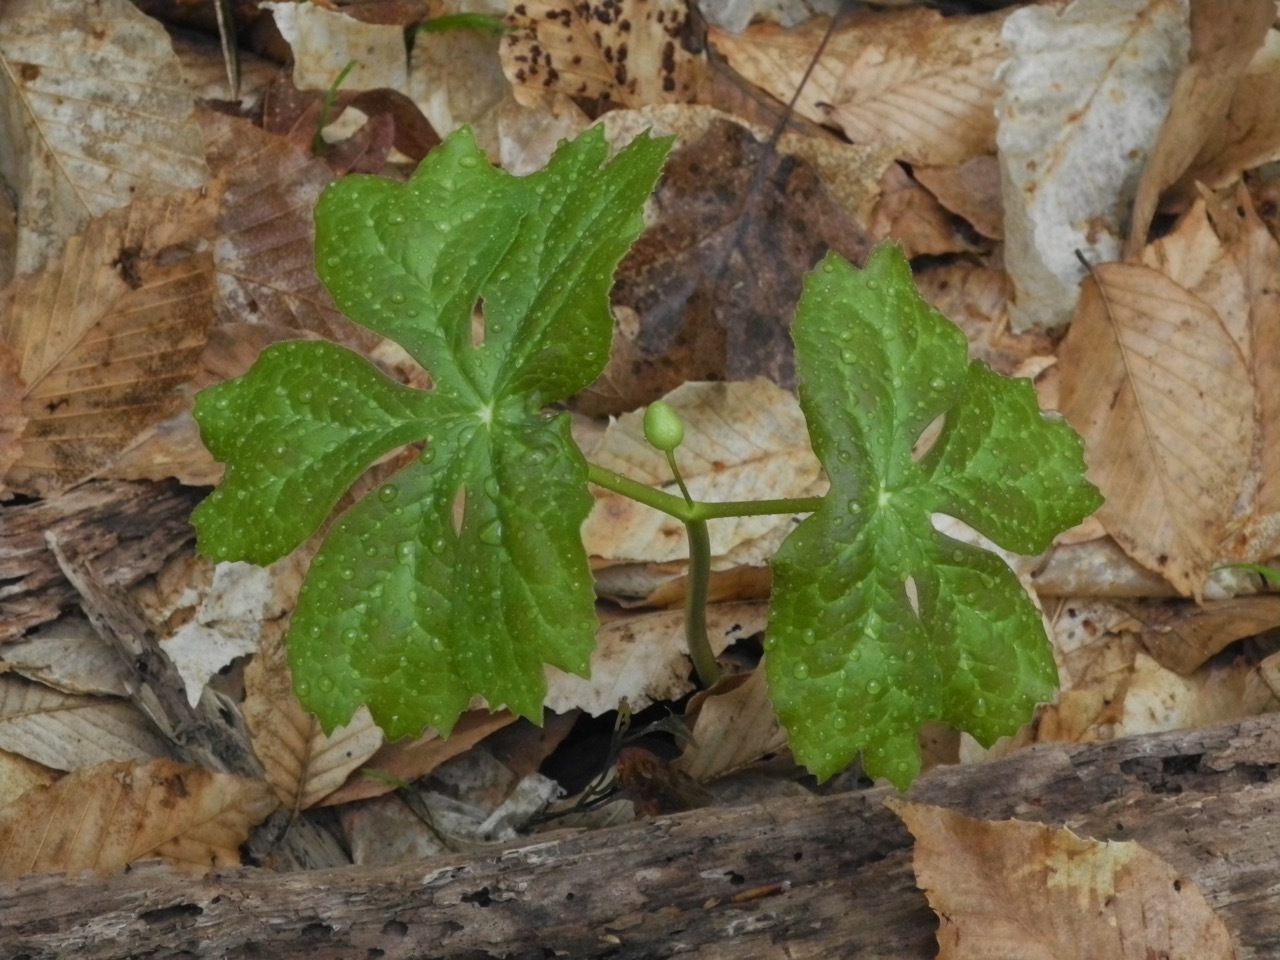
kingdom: Plantae
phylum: Tracheophyta
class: Magnoliopsida
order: Ranunculales
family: Berberidaceae
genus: Podophyllum
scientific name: Podophyllum peltatum
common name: Wild mandrake
